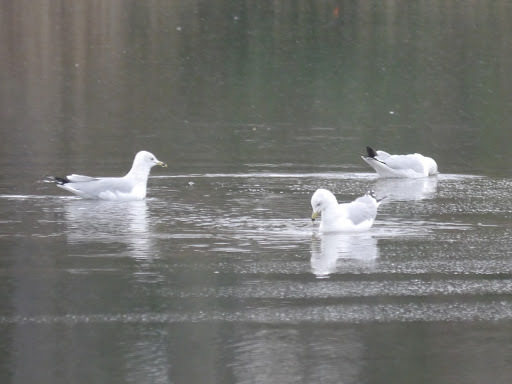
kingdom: Animalia
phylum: Chordata
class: Aves
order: Charadriiformes
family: Laridae
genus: Larus
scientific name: Larus delawarensis
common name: Ring-billed gull
